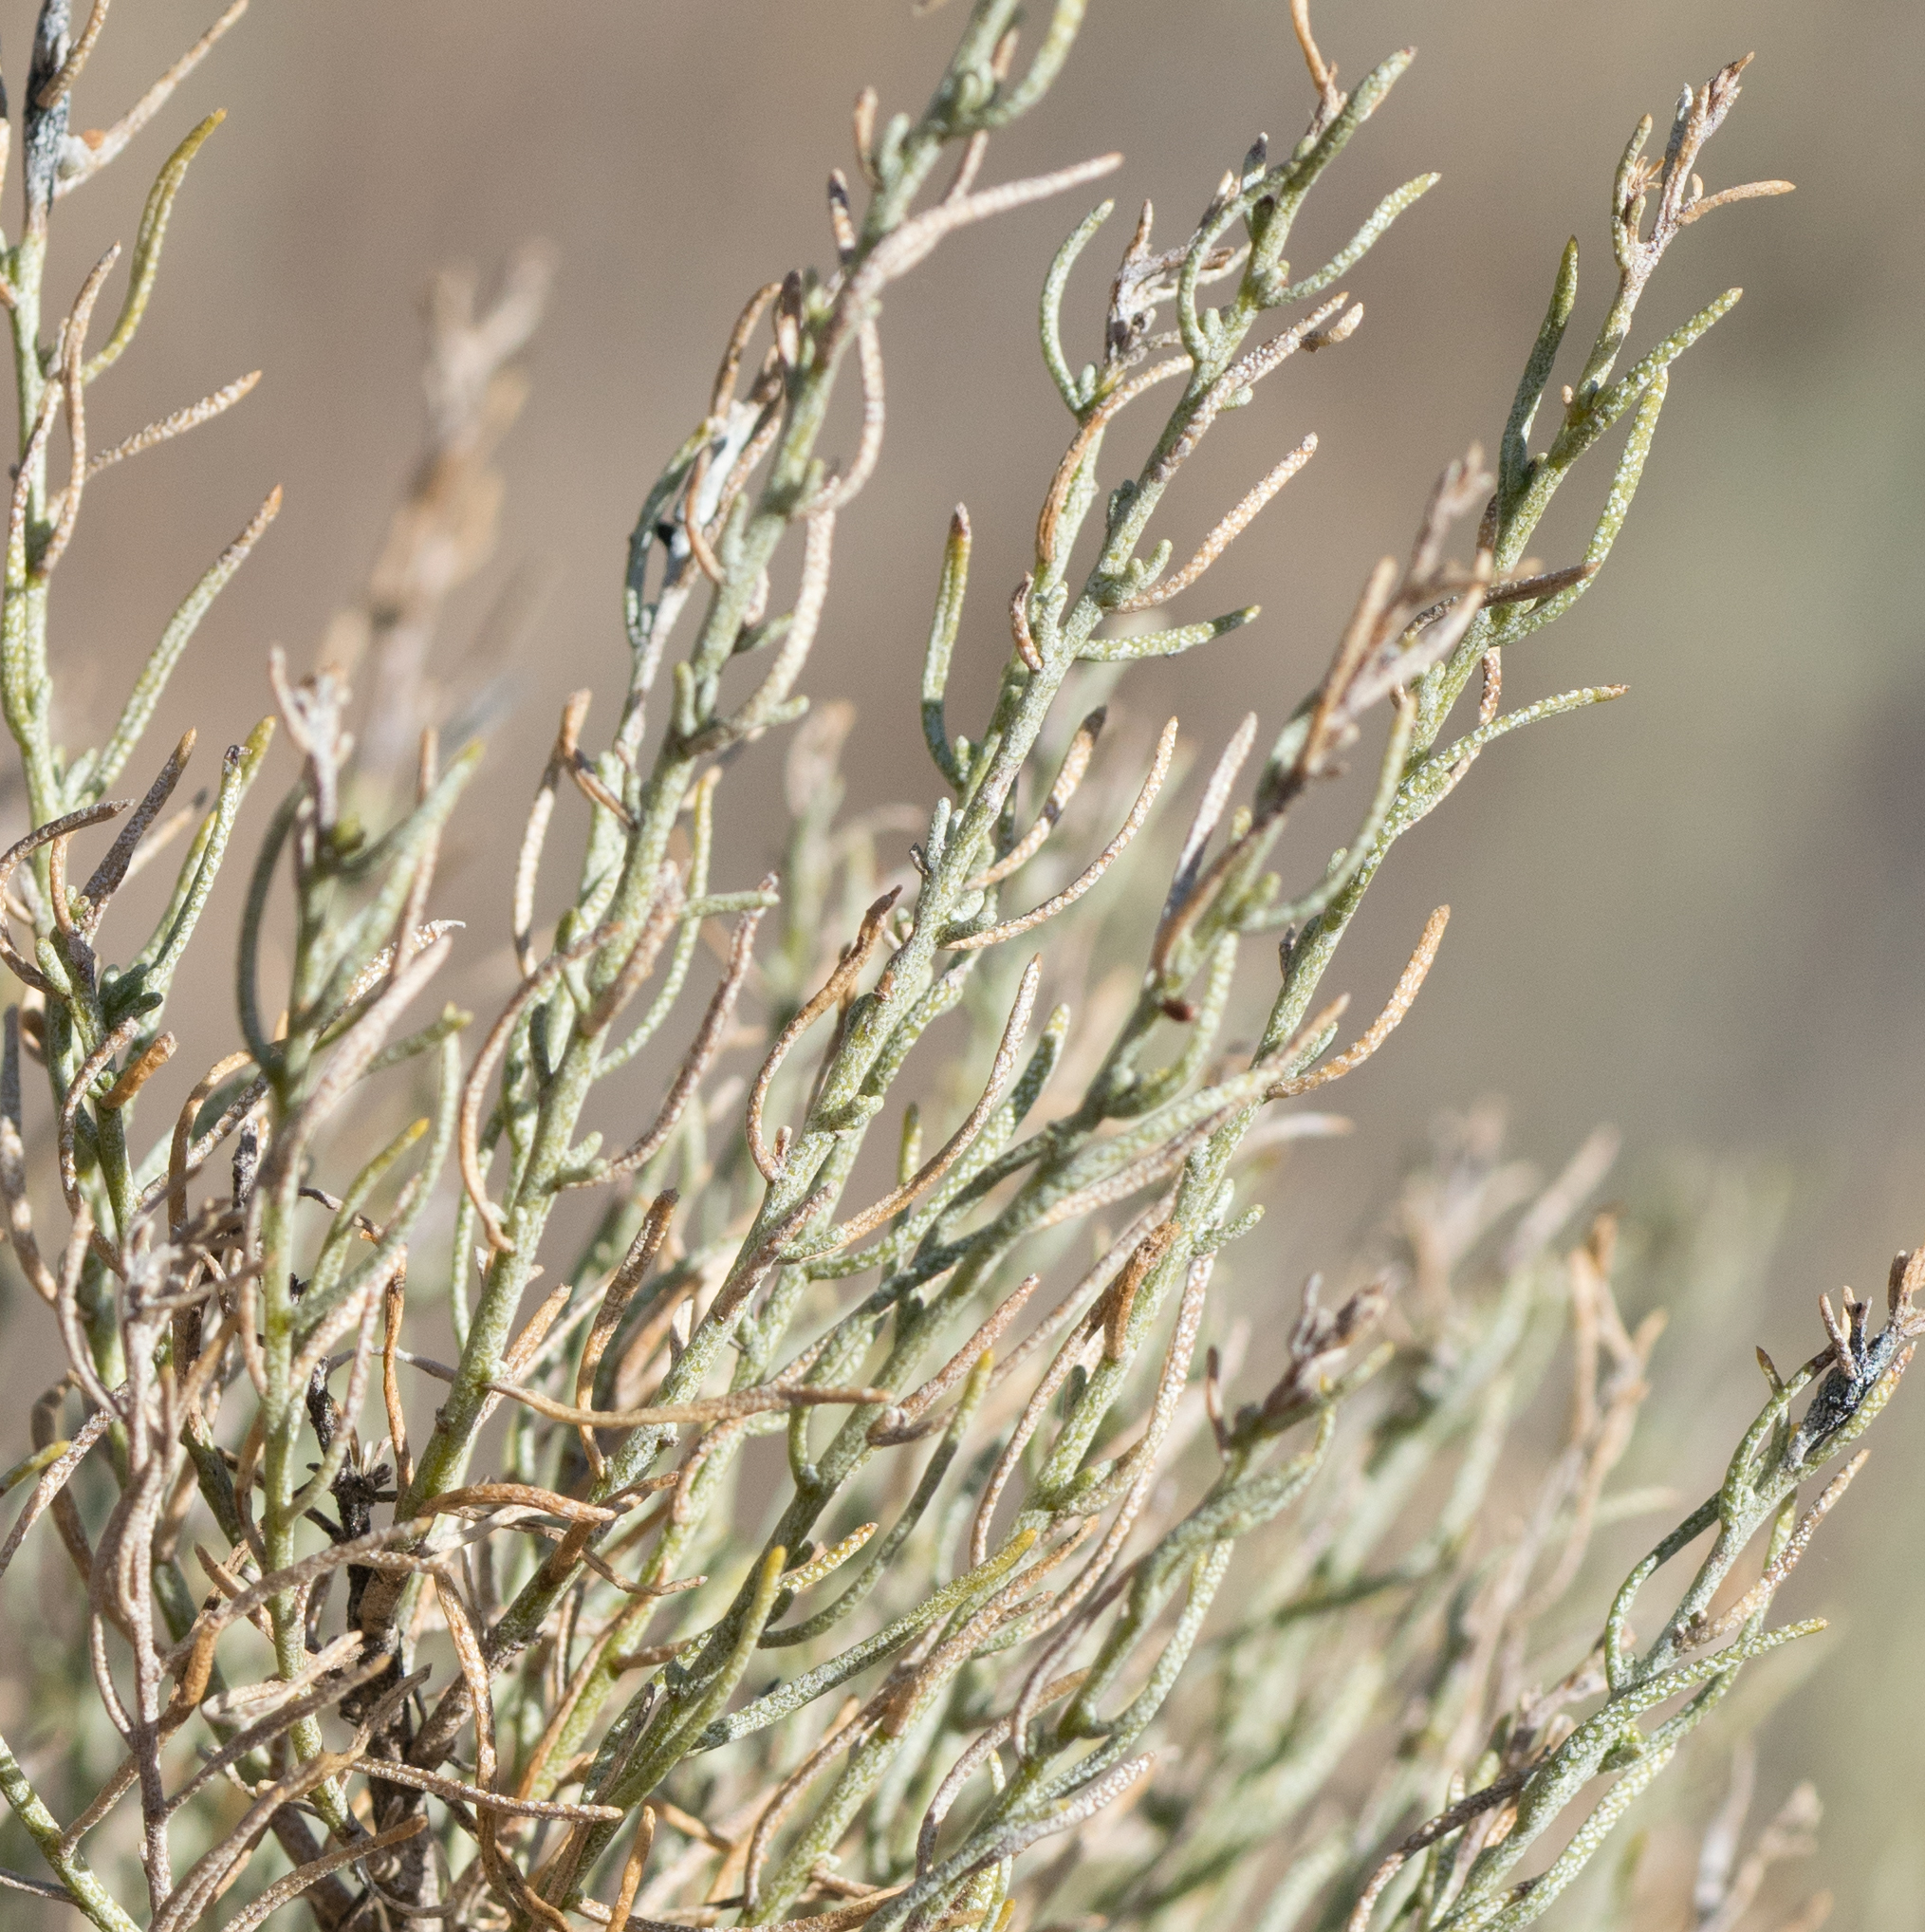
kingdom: Plantae
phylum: Tracheophyta
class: Magnoliopsida
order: Asterales
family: Asteraceae
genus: Ericameria
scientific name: Ericameria laricifolia
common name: Turpentine-bush
